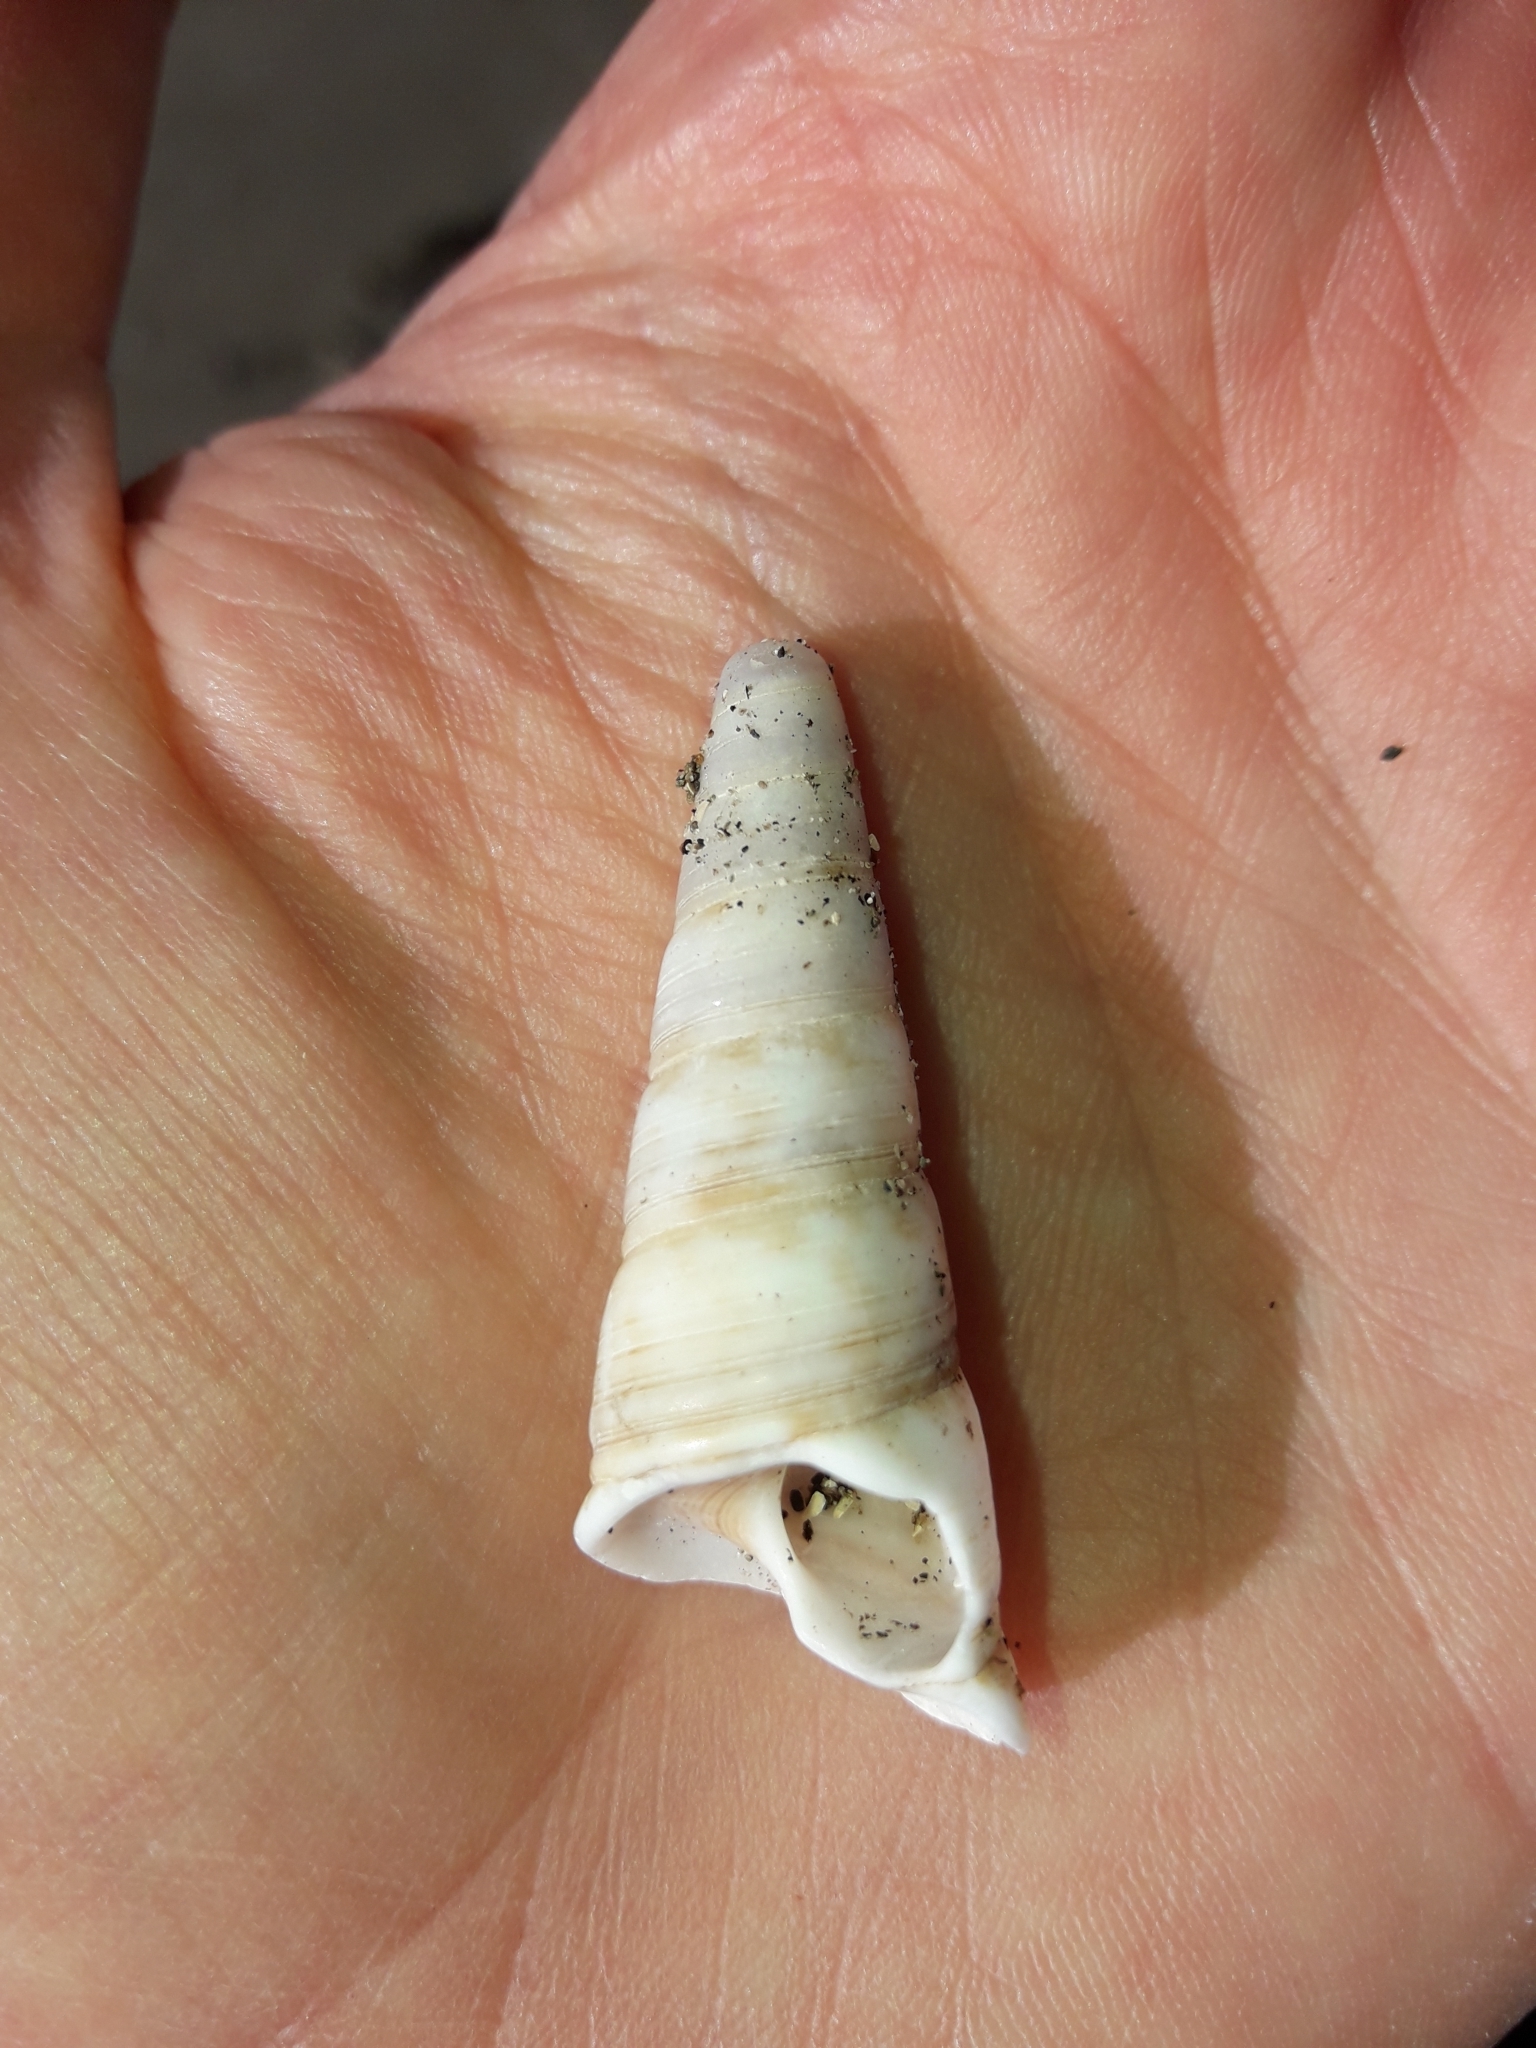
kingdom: Animalia
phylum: Mollusca
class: Gastropoda
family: Turritellidae
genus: Maoricolpus
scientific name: Maoricolpus roseus
